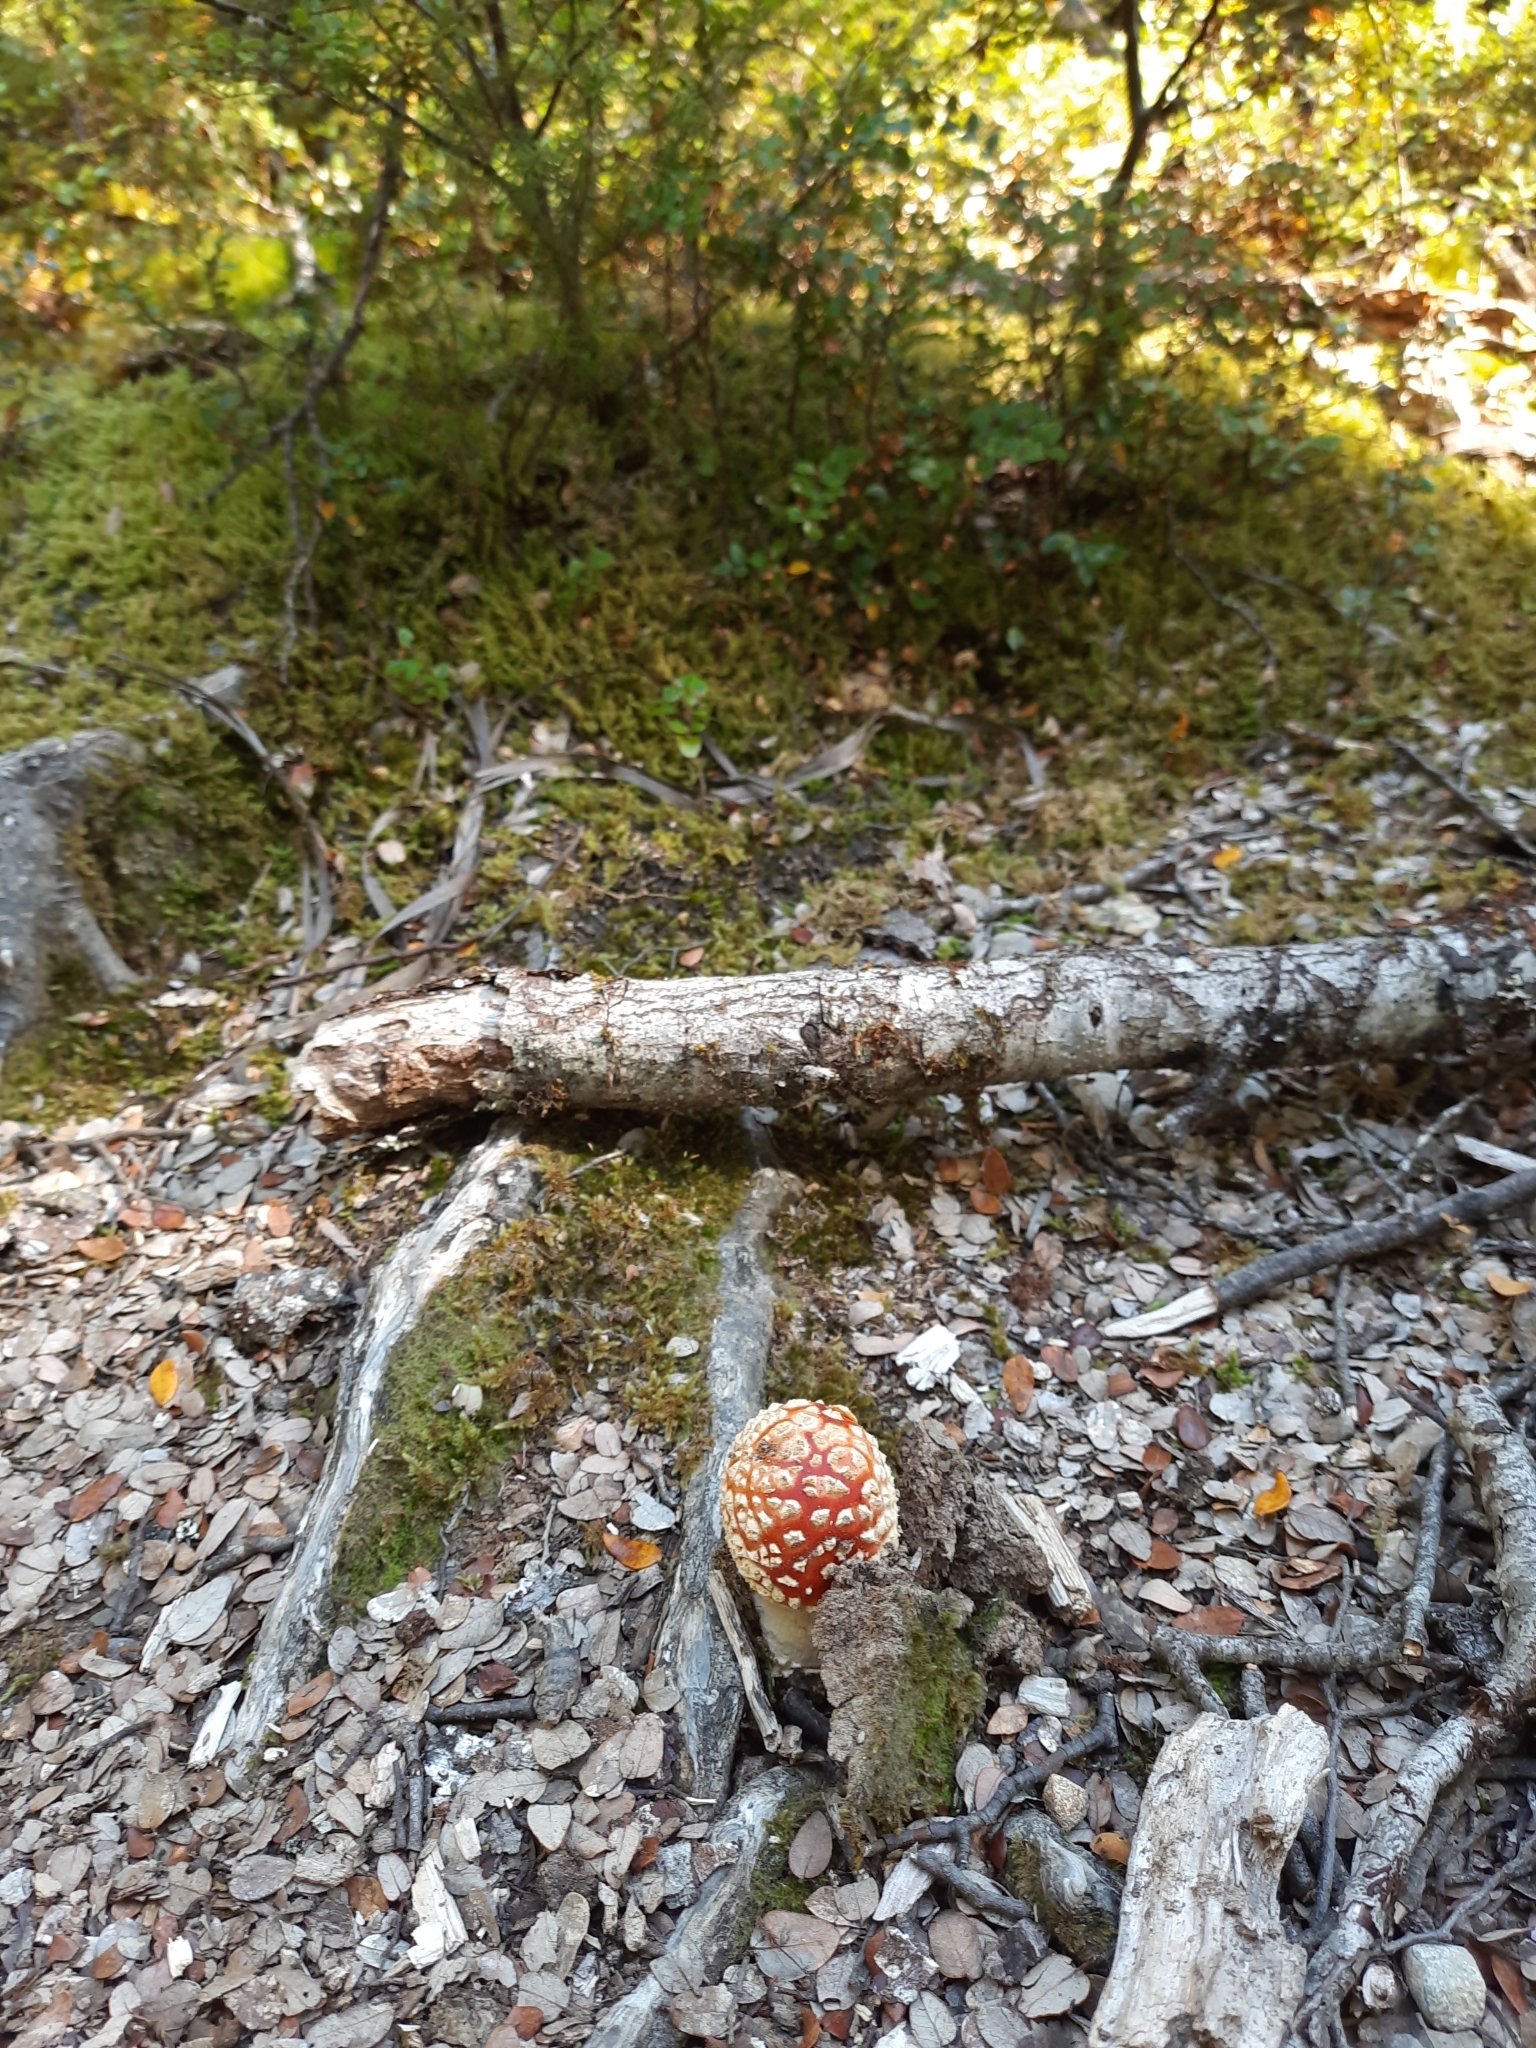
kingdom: Fungi
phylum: Basidiomycota
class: Agaricomycetes
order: Agaricales
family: Amanitaceae
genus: Amanita
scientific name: Amanita muscaria
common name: Fly agaric
